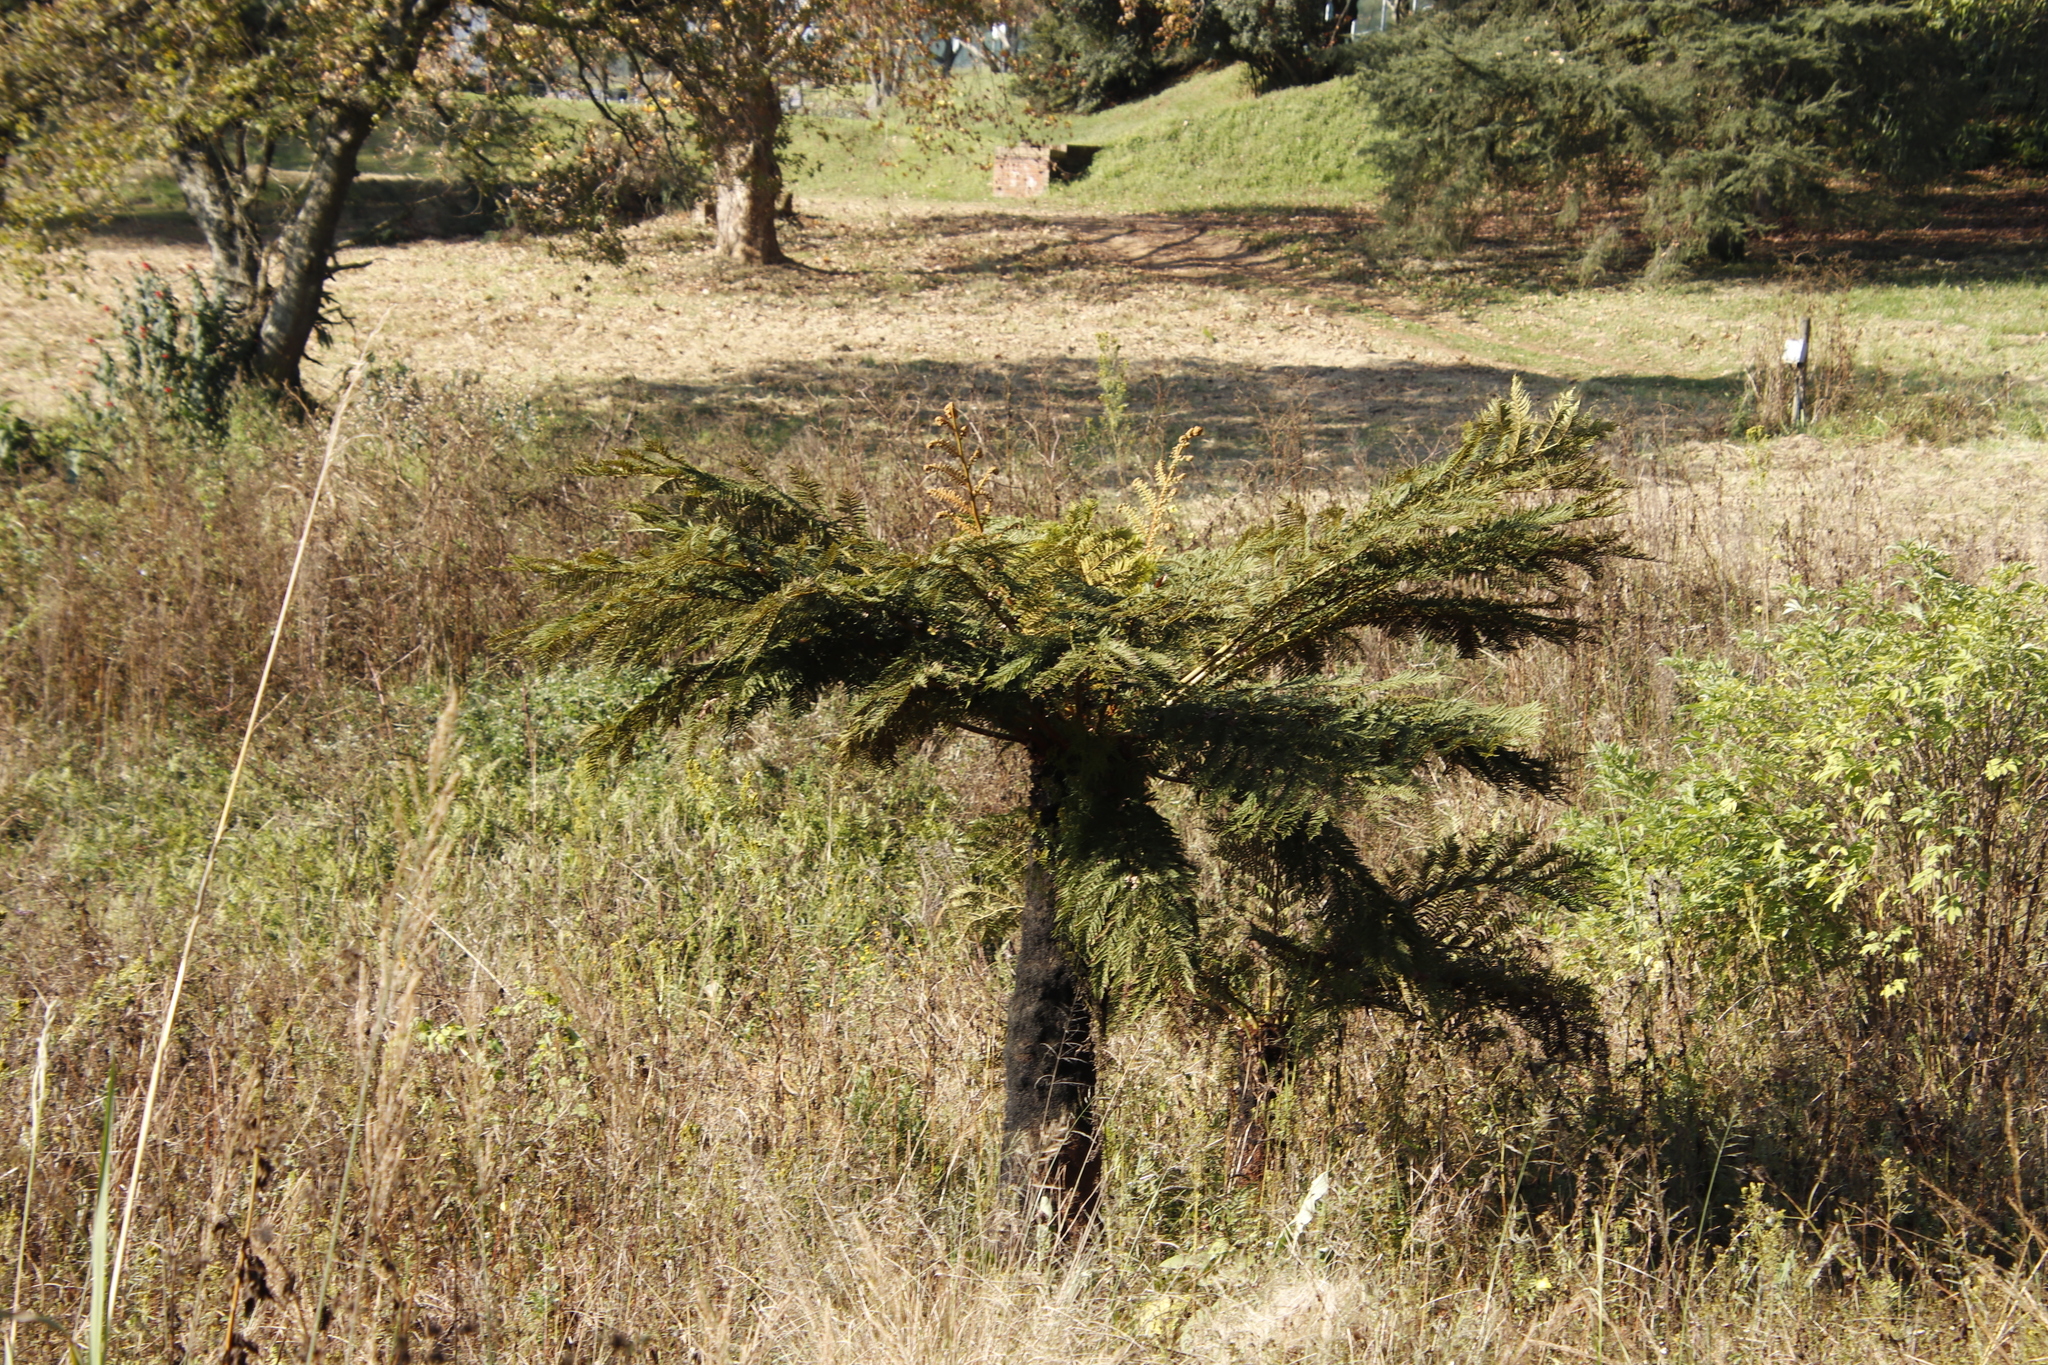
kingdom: Plantae
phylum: Tracheophyta
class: Polypodiopsida
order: Cyatheales
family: Cyatheaceae
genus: Alsophila
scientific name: Alsophila dregei
